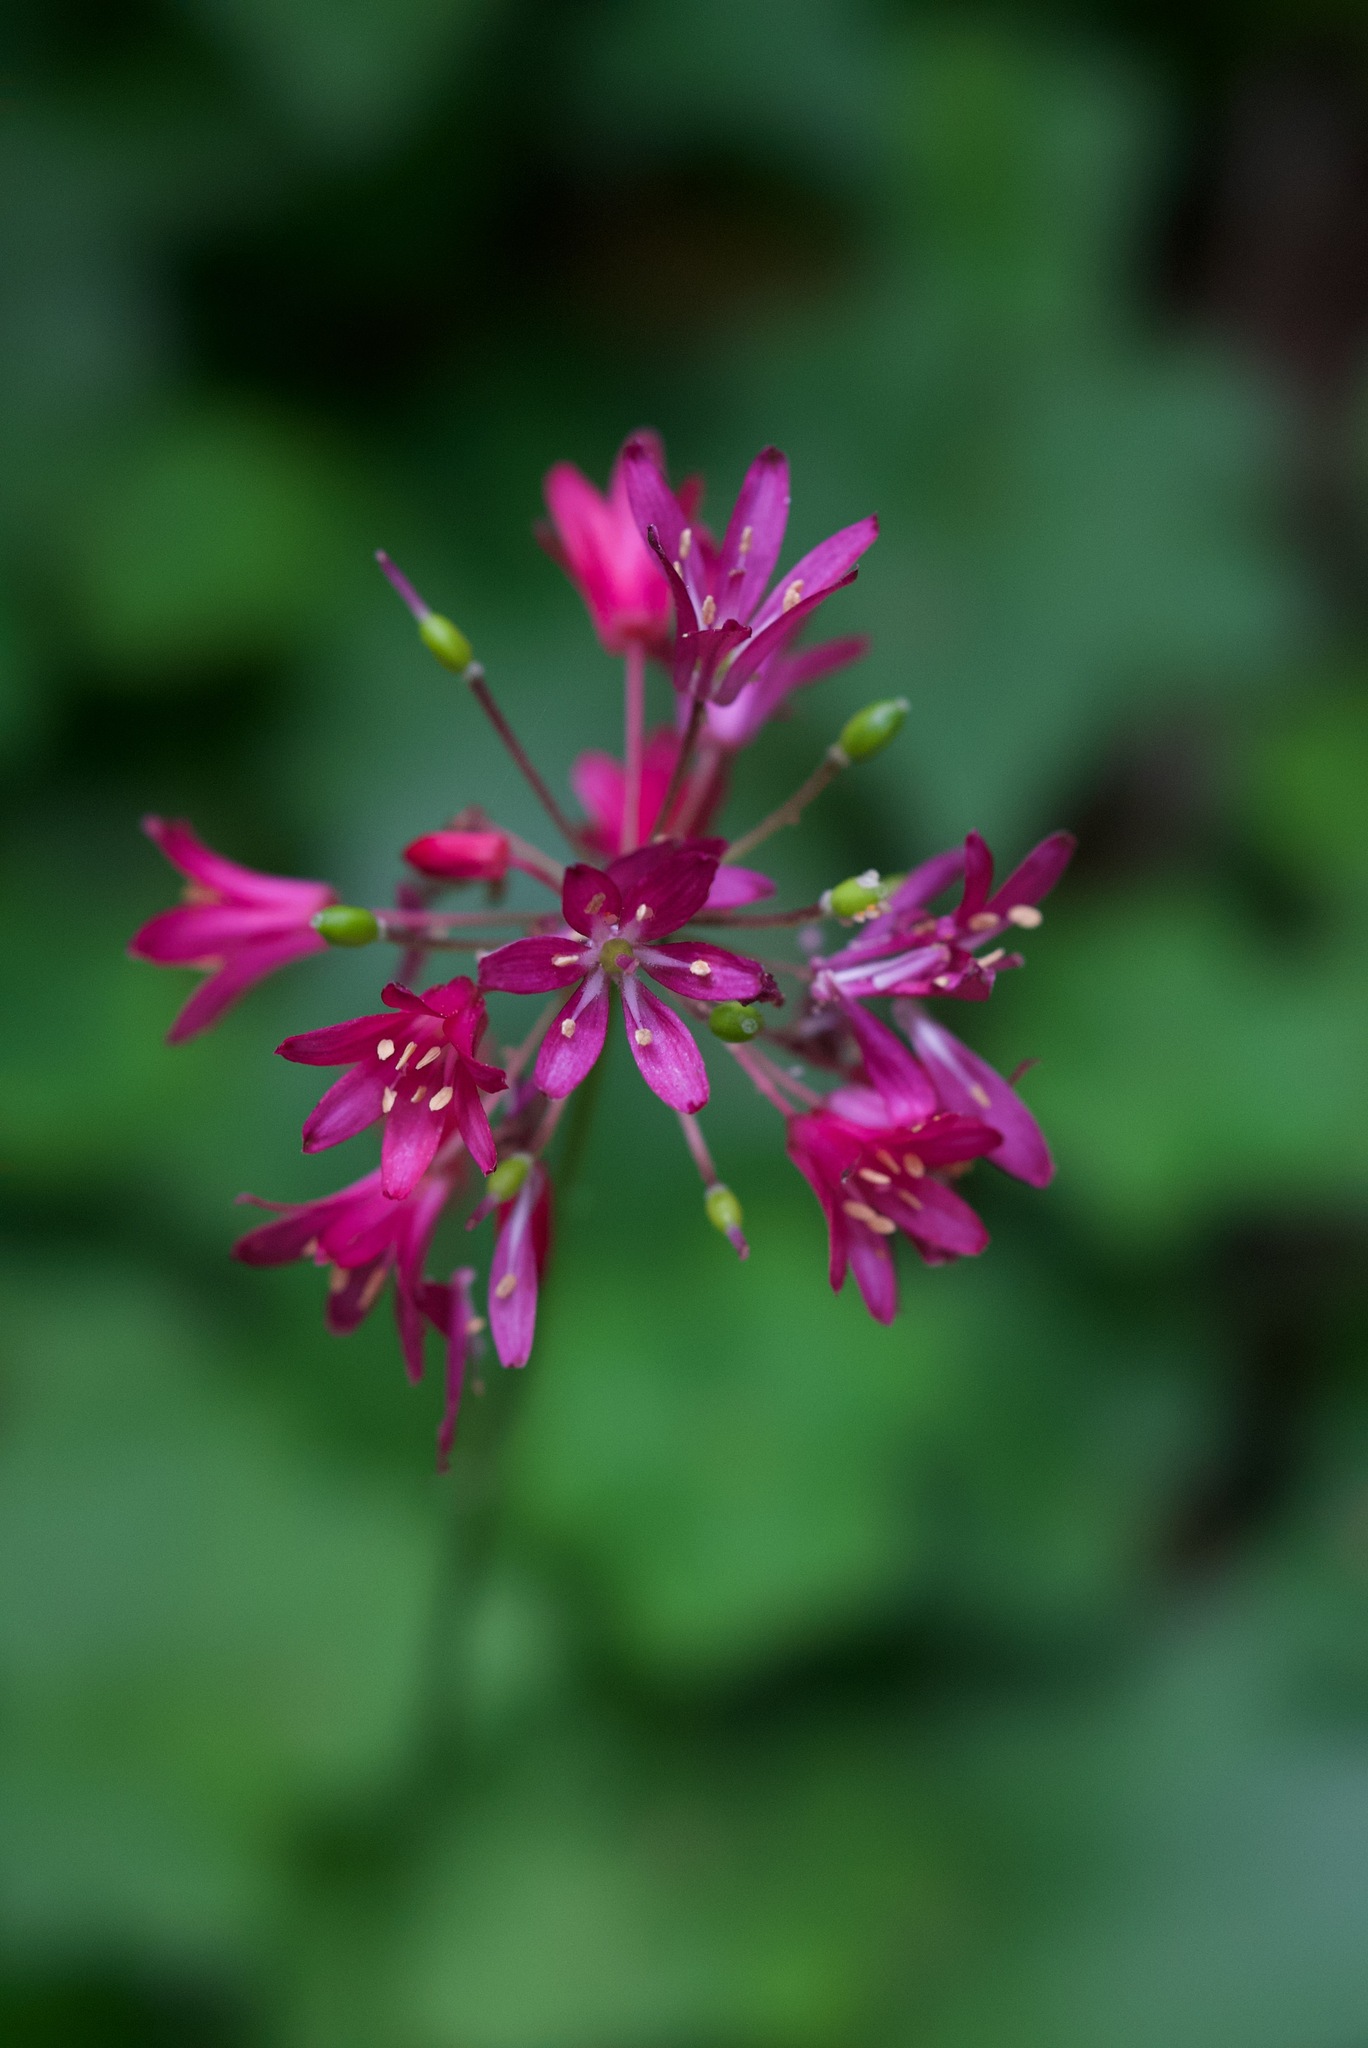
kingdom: Plantae
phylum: Tracheophyta
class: Liliopsida
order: Liliales
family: Liliaceae
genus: Clintonia
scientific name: Clintonia andrewsiana
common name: Red clintonia
